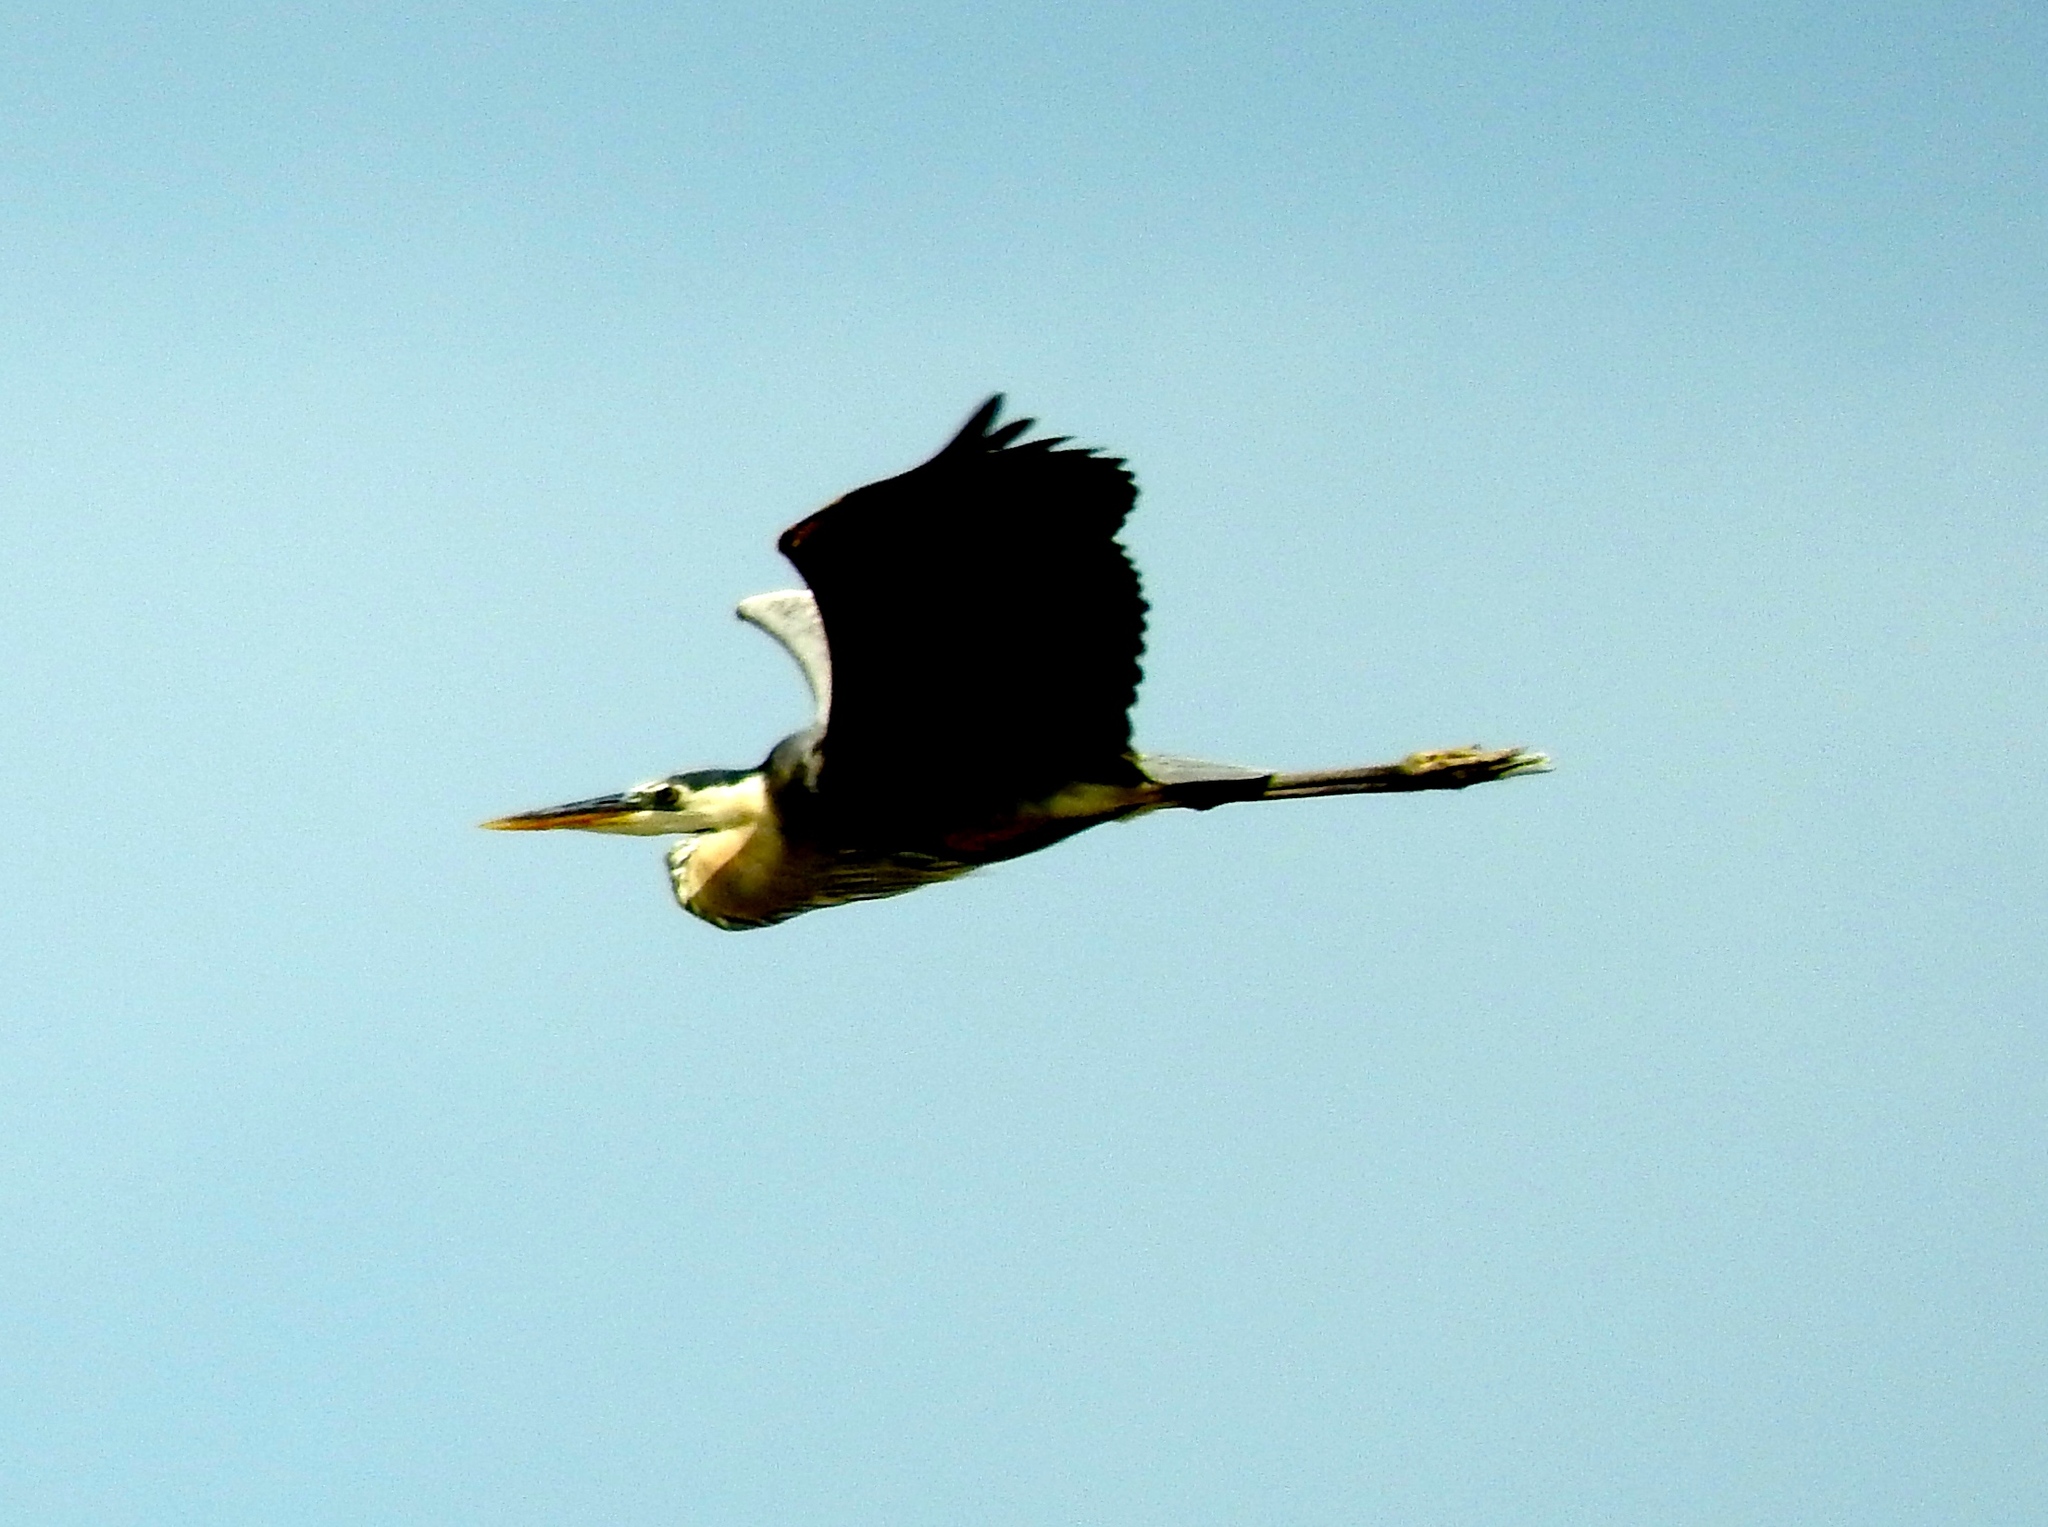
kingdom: Animalia
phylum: Chordata
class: Aves
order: Pelecaniformes
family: Ardeidae
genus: Ardea
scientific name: Ardea herodias
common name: Great blue heron
